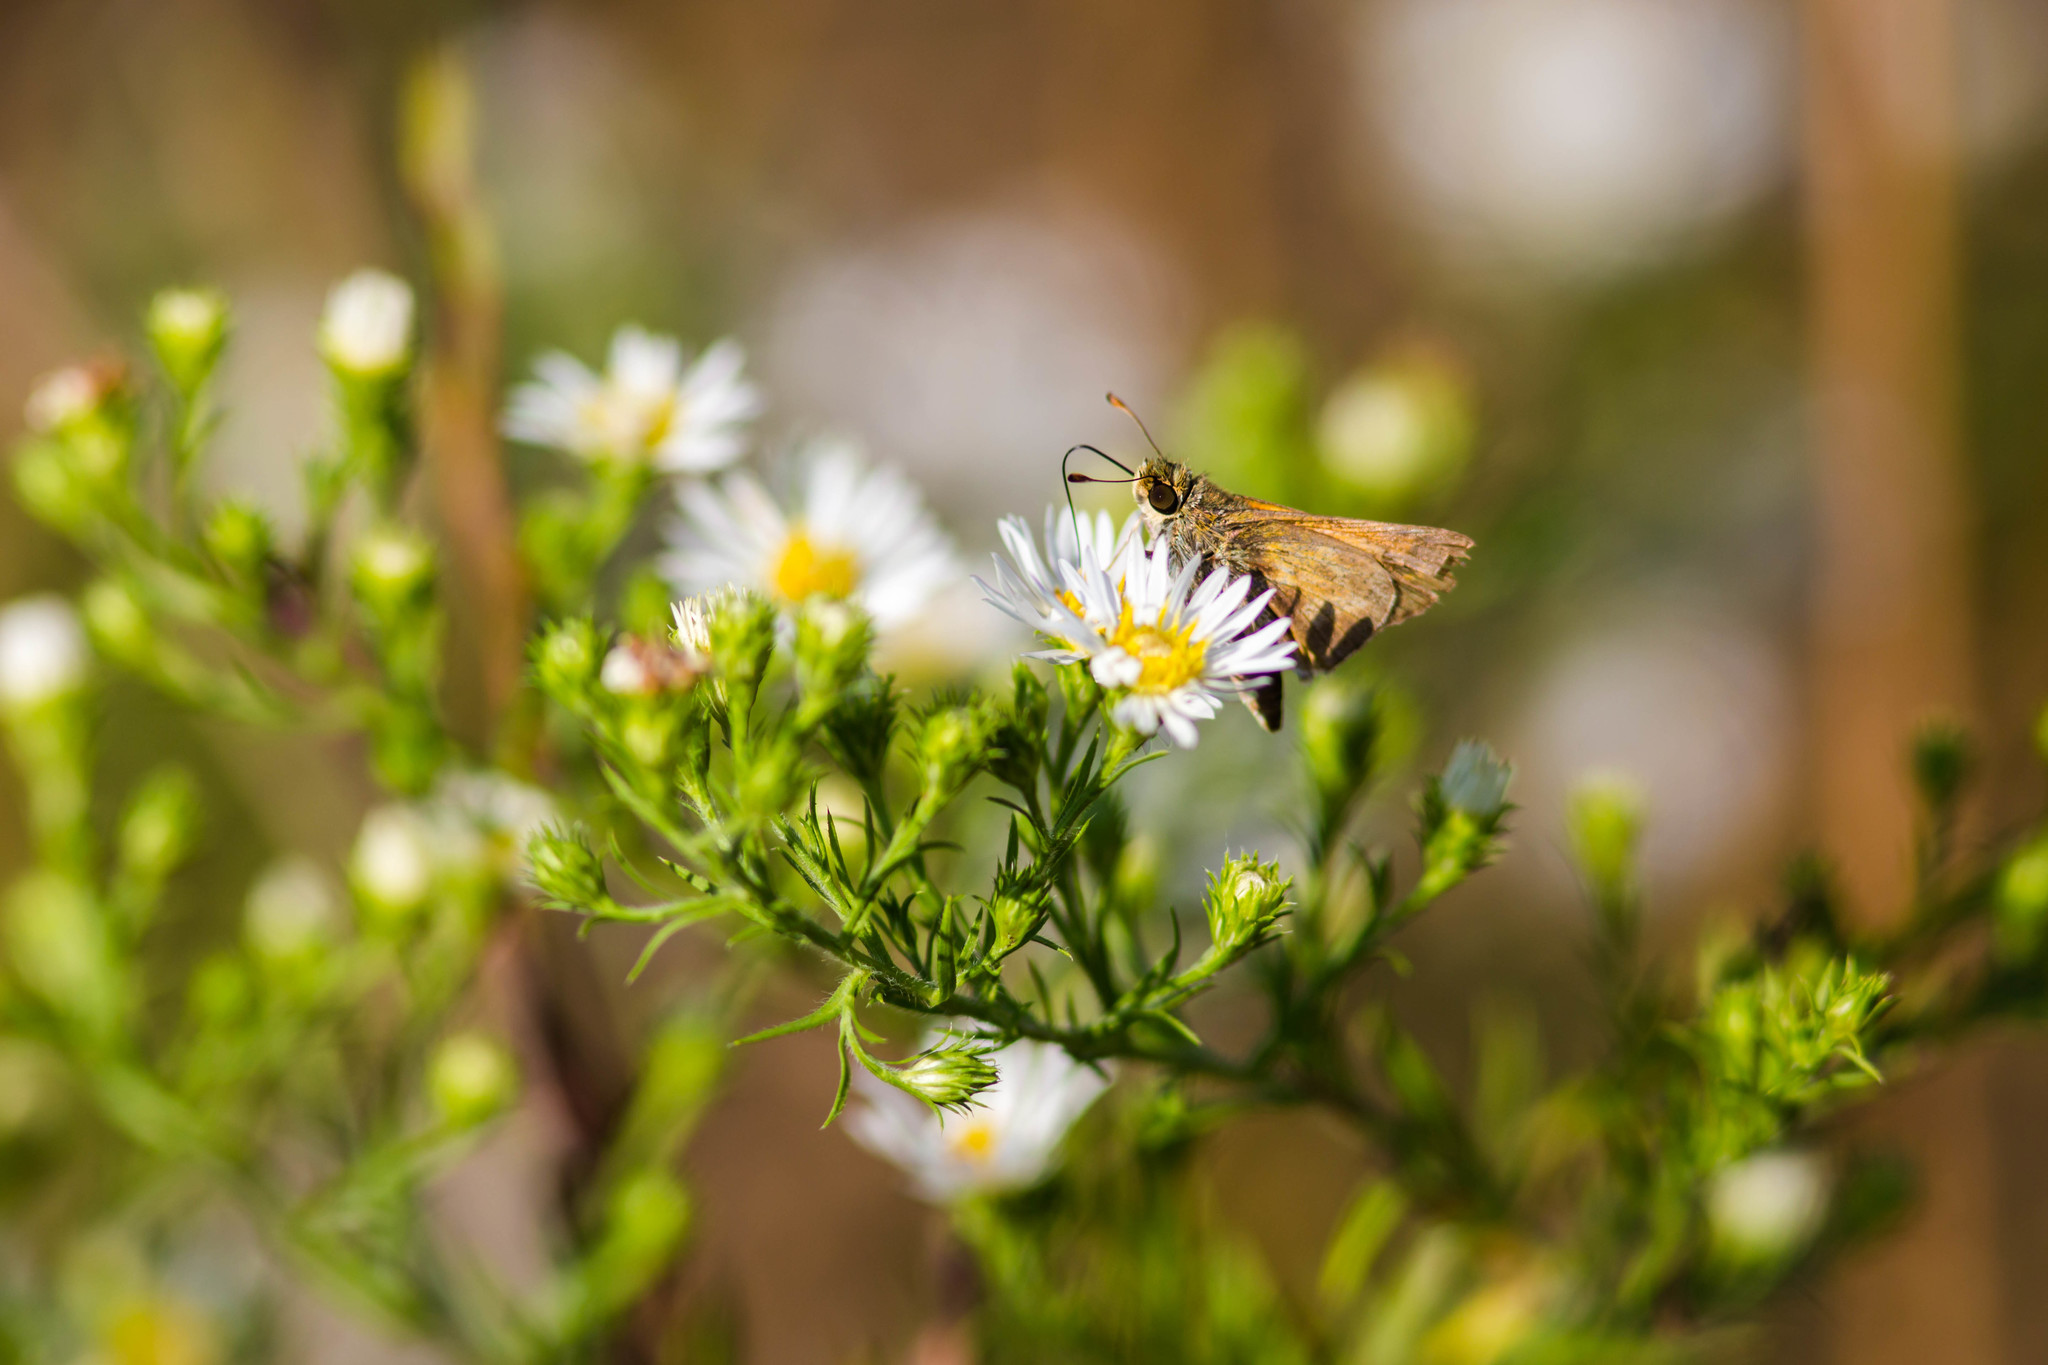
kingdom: Animalia
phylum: Arthropoda
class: Insecta
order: Lepidoptera
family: Hesperiidae
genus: Atalopedes
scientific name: Atalopedes
